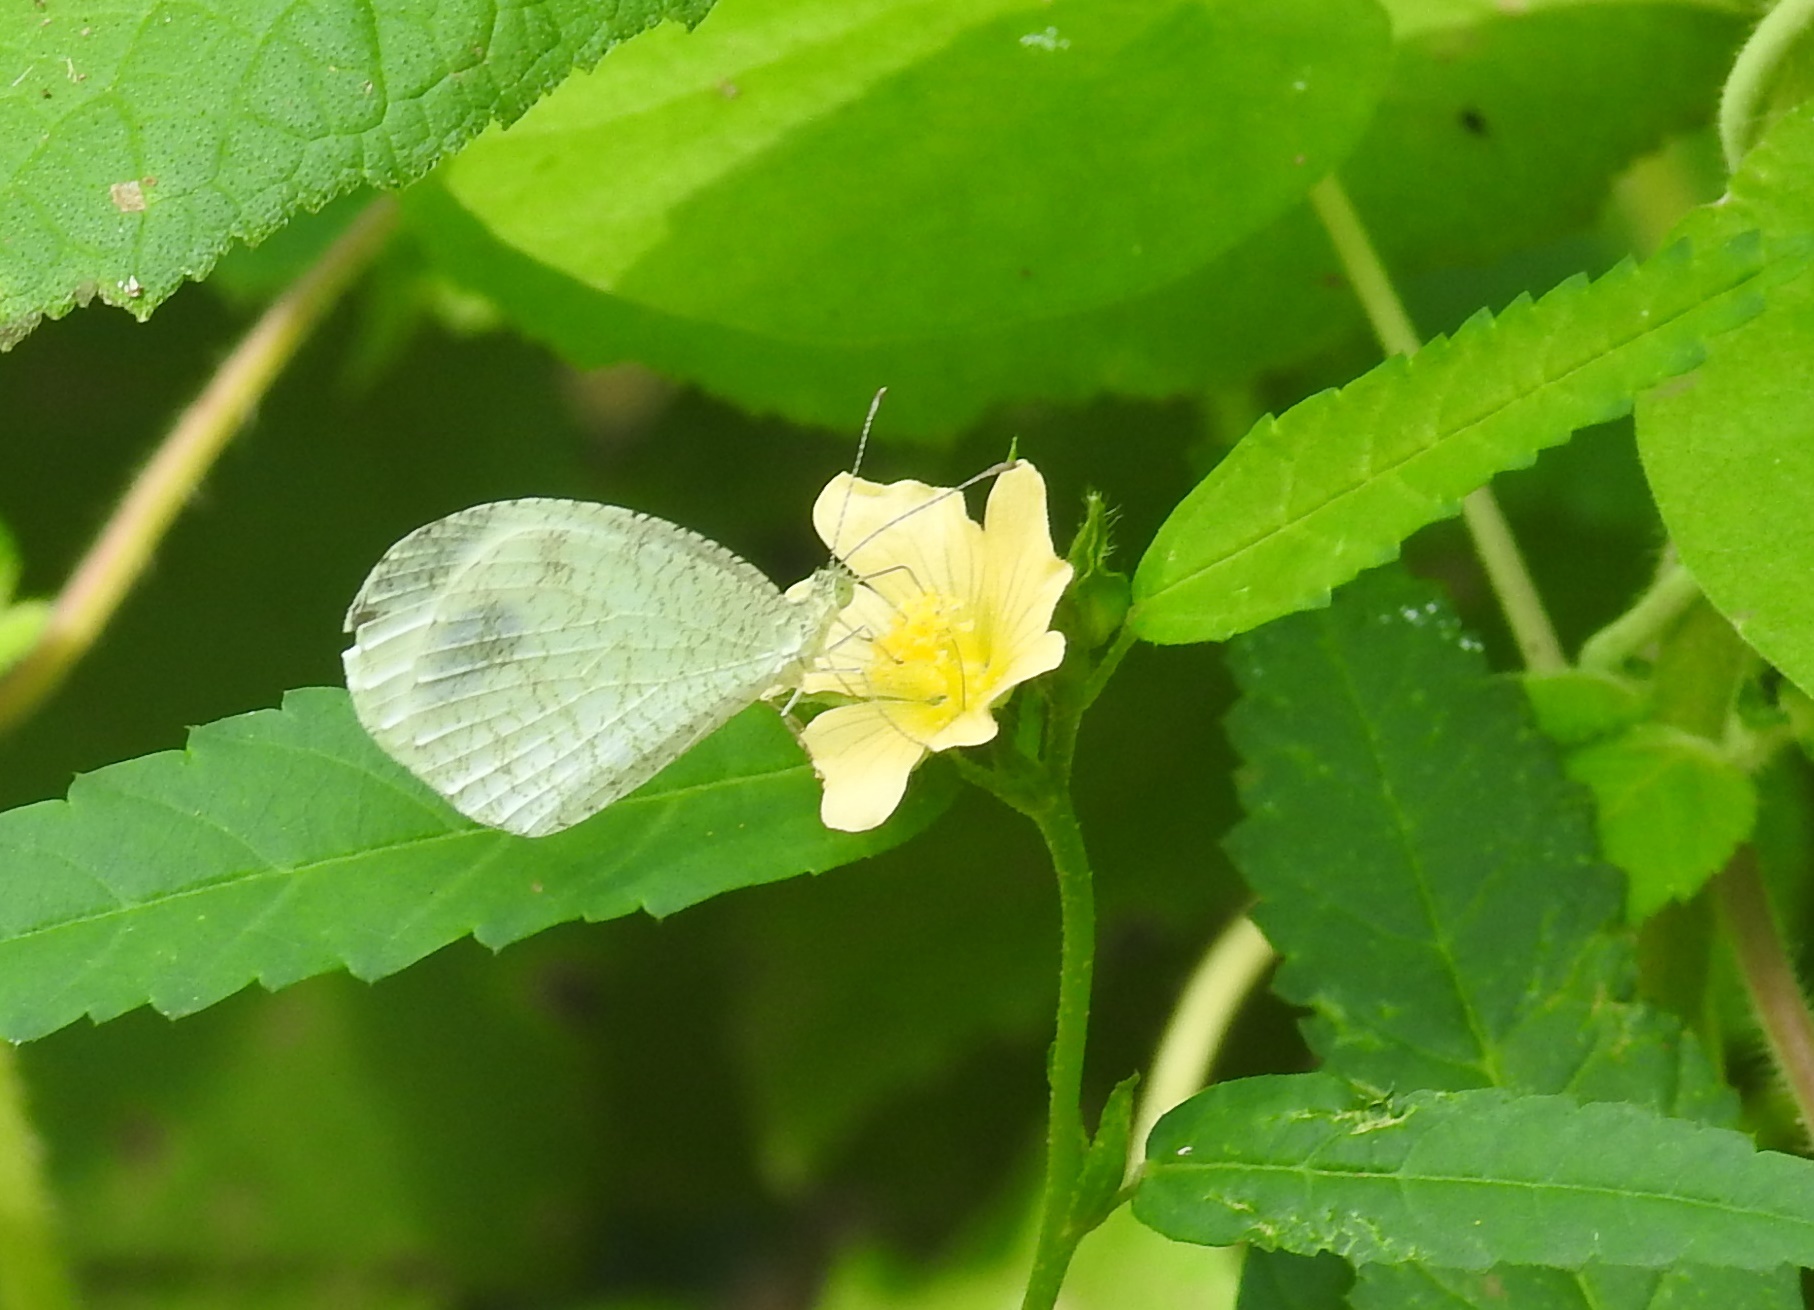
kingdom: Animalia
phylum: Arthropoda
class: Insecta
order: Lepidoptera
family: Pieridae
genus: Leptosia
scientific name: Leptosia nina
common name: Psyche
